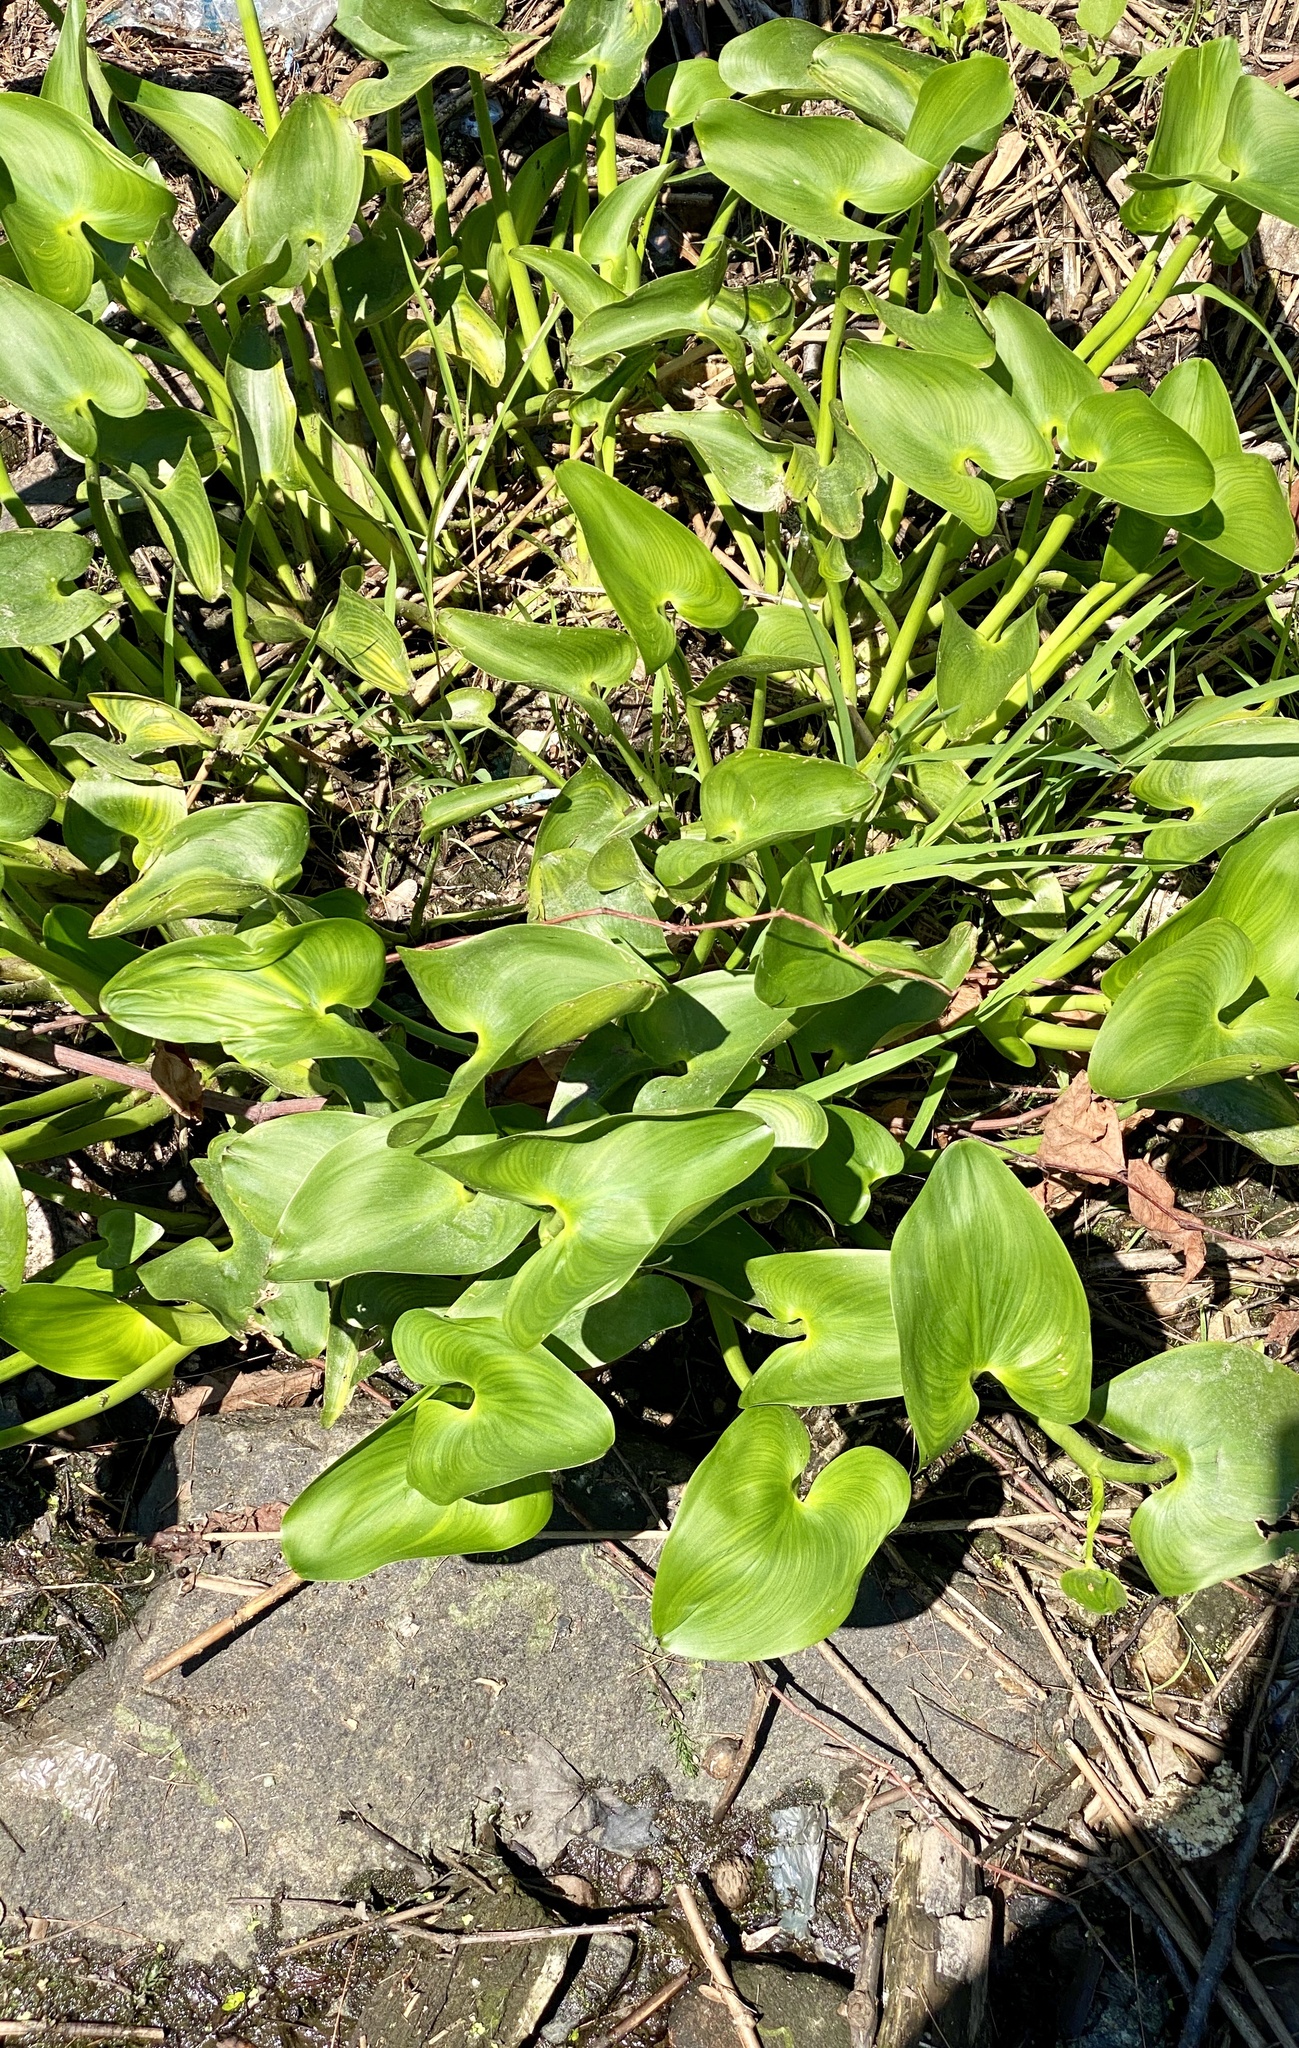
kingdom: Plantae
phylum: Tracheophyta
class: Liliopsida
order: Commelinales
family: Pontederiaceae
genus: Pontederia
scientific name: Pontederia cordata
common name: Pickerelweed
